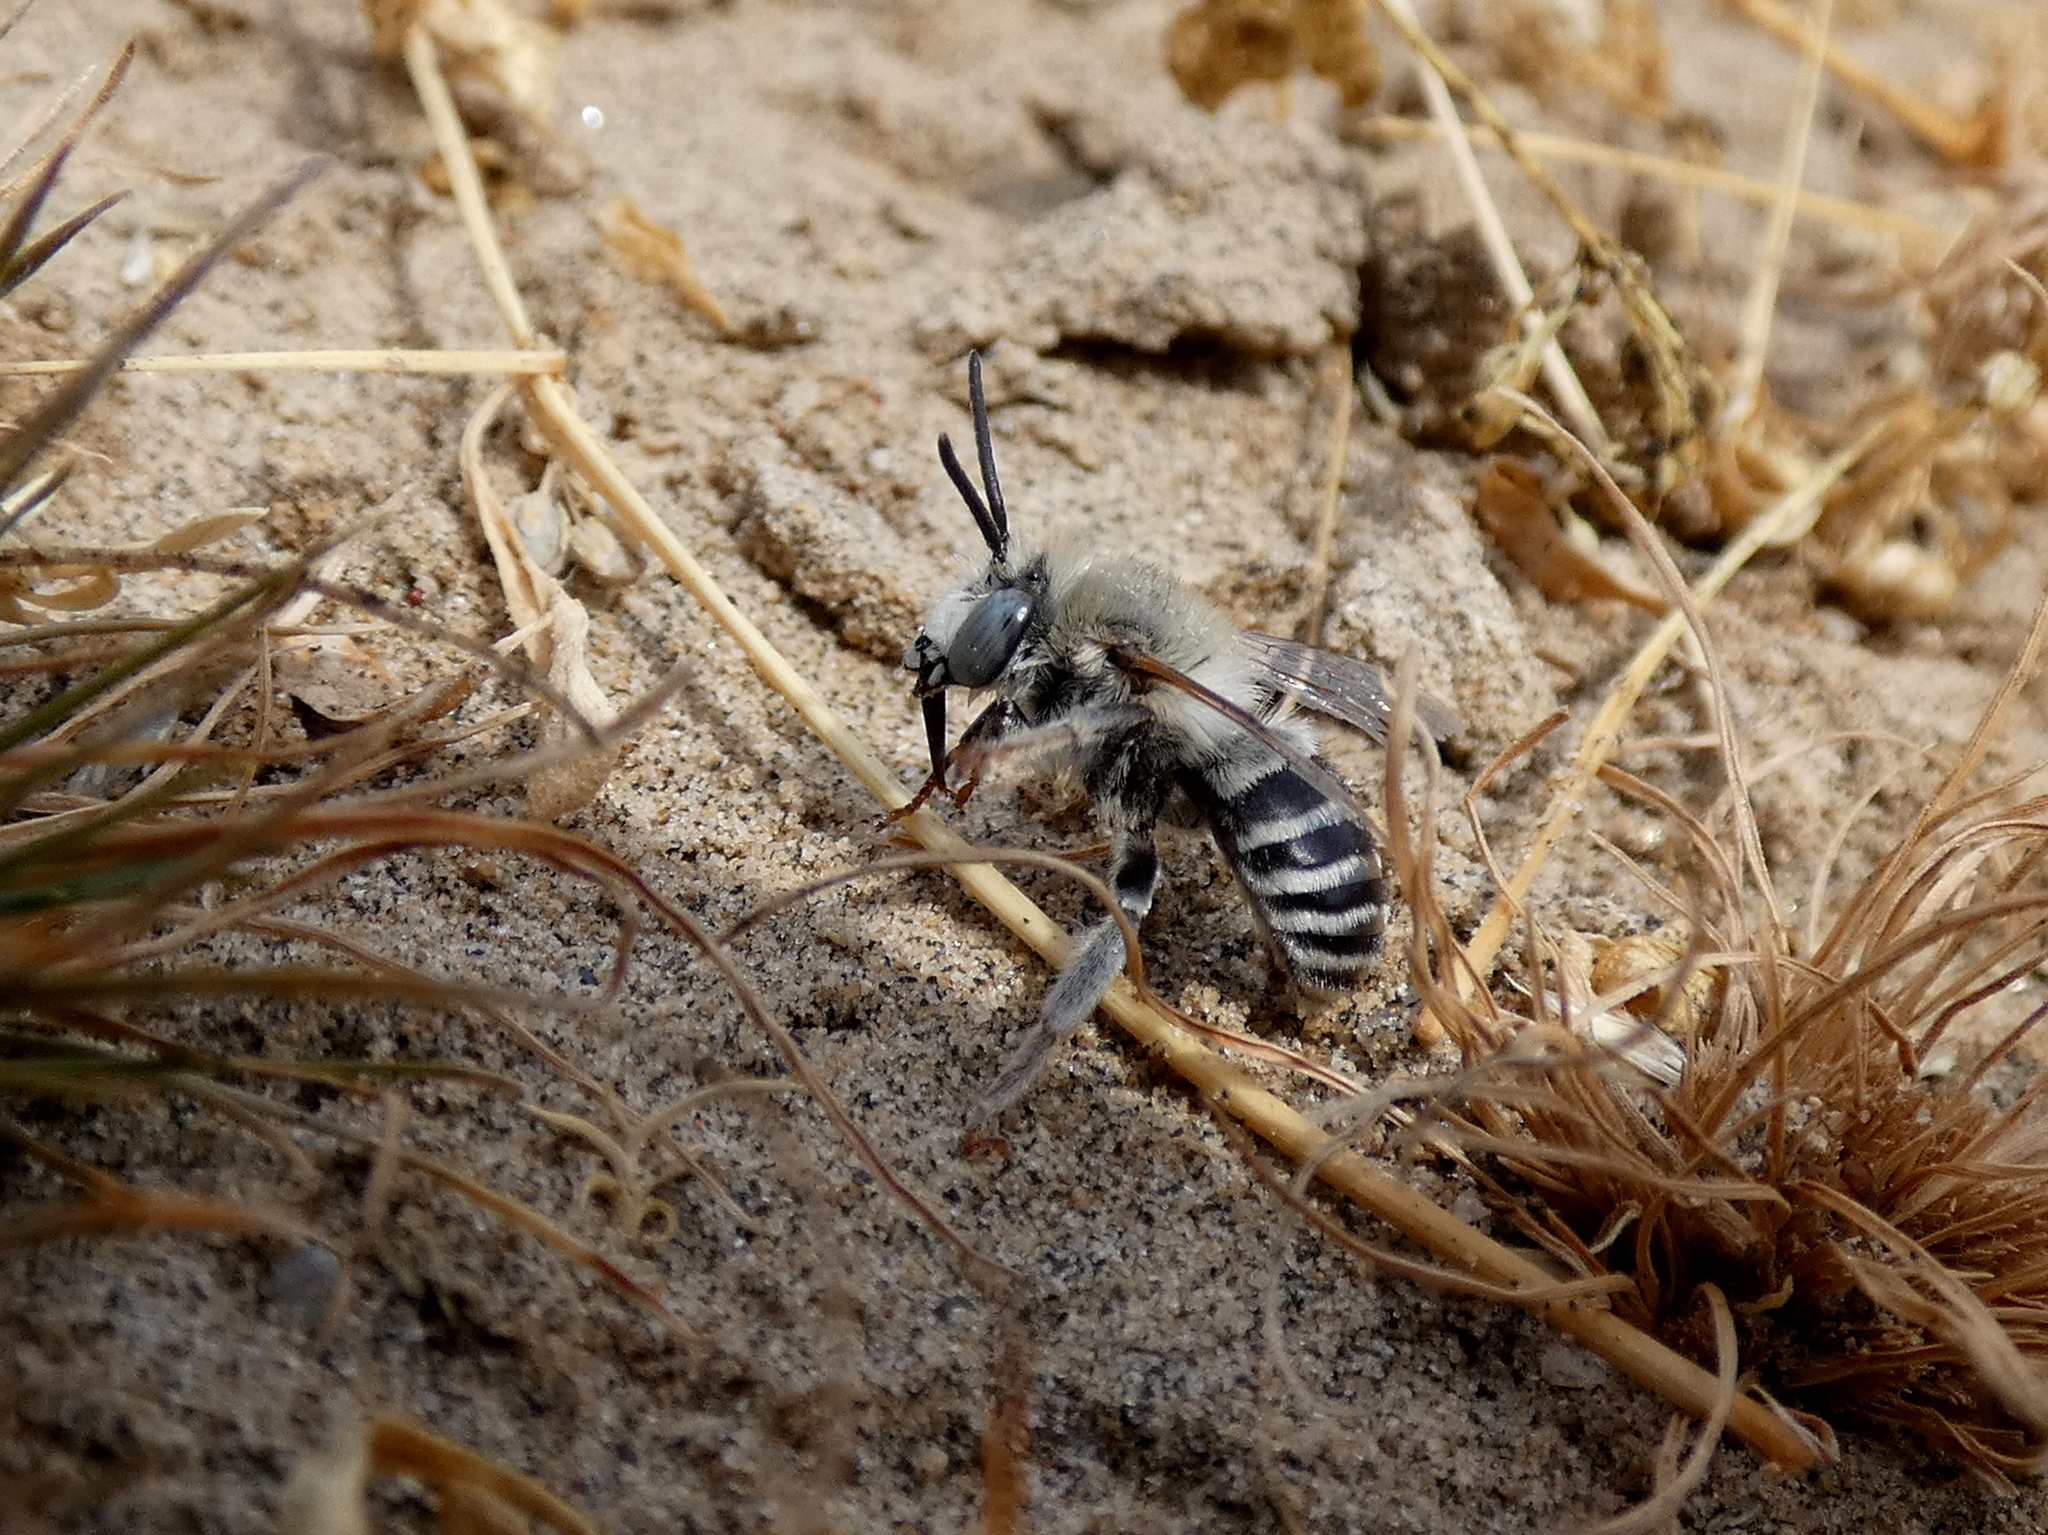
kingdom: Animalia
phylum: Arthropoda
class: Insecta
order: Hymenoptera
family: Apidae
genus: Anthophora
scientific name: Anthophora urbana
